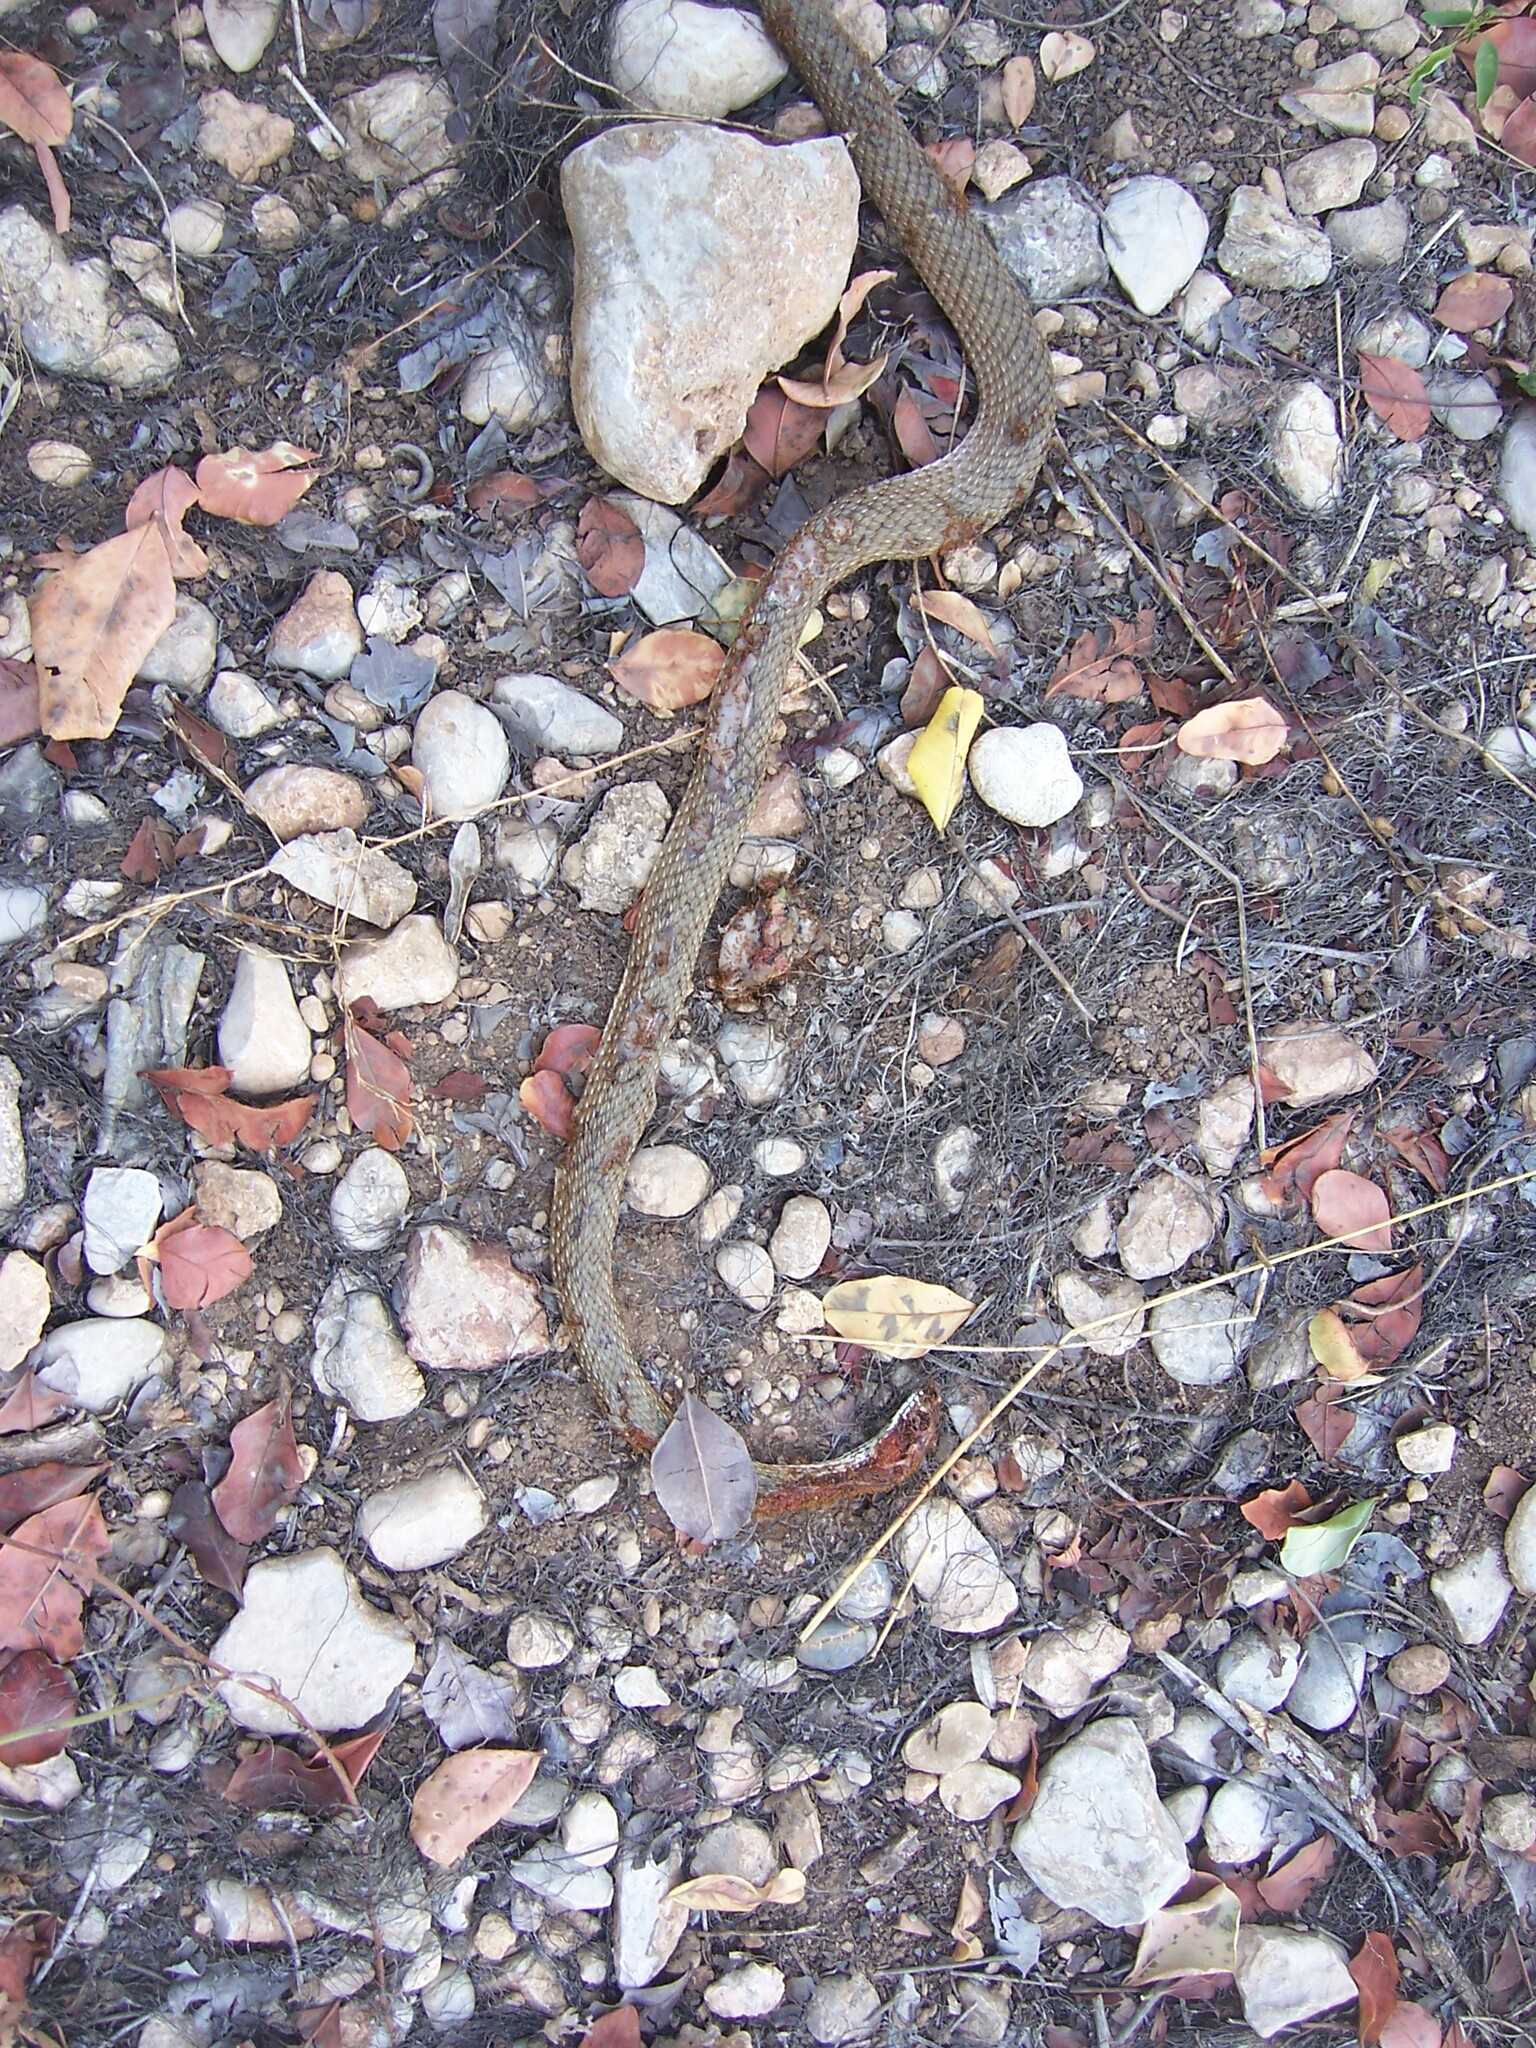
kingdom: Animalia
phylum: Chordata
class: Squamata
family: Psammophiidae
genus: Malpolon
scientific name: Malpolon insignitus
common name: Eastern montpellier snake
